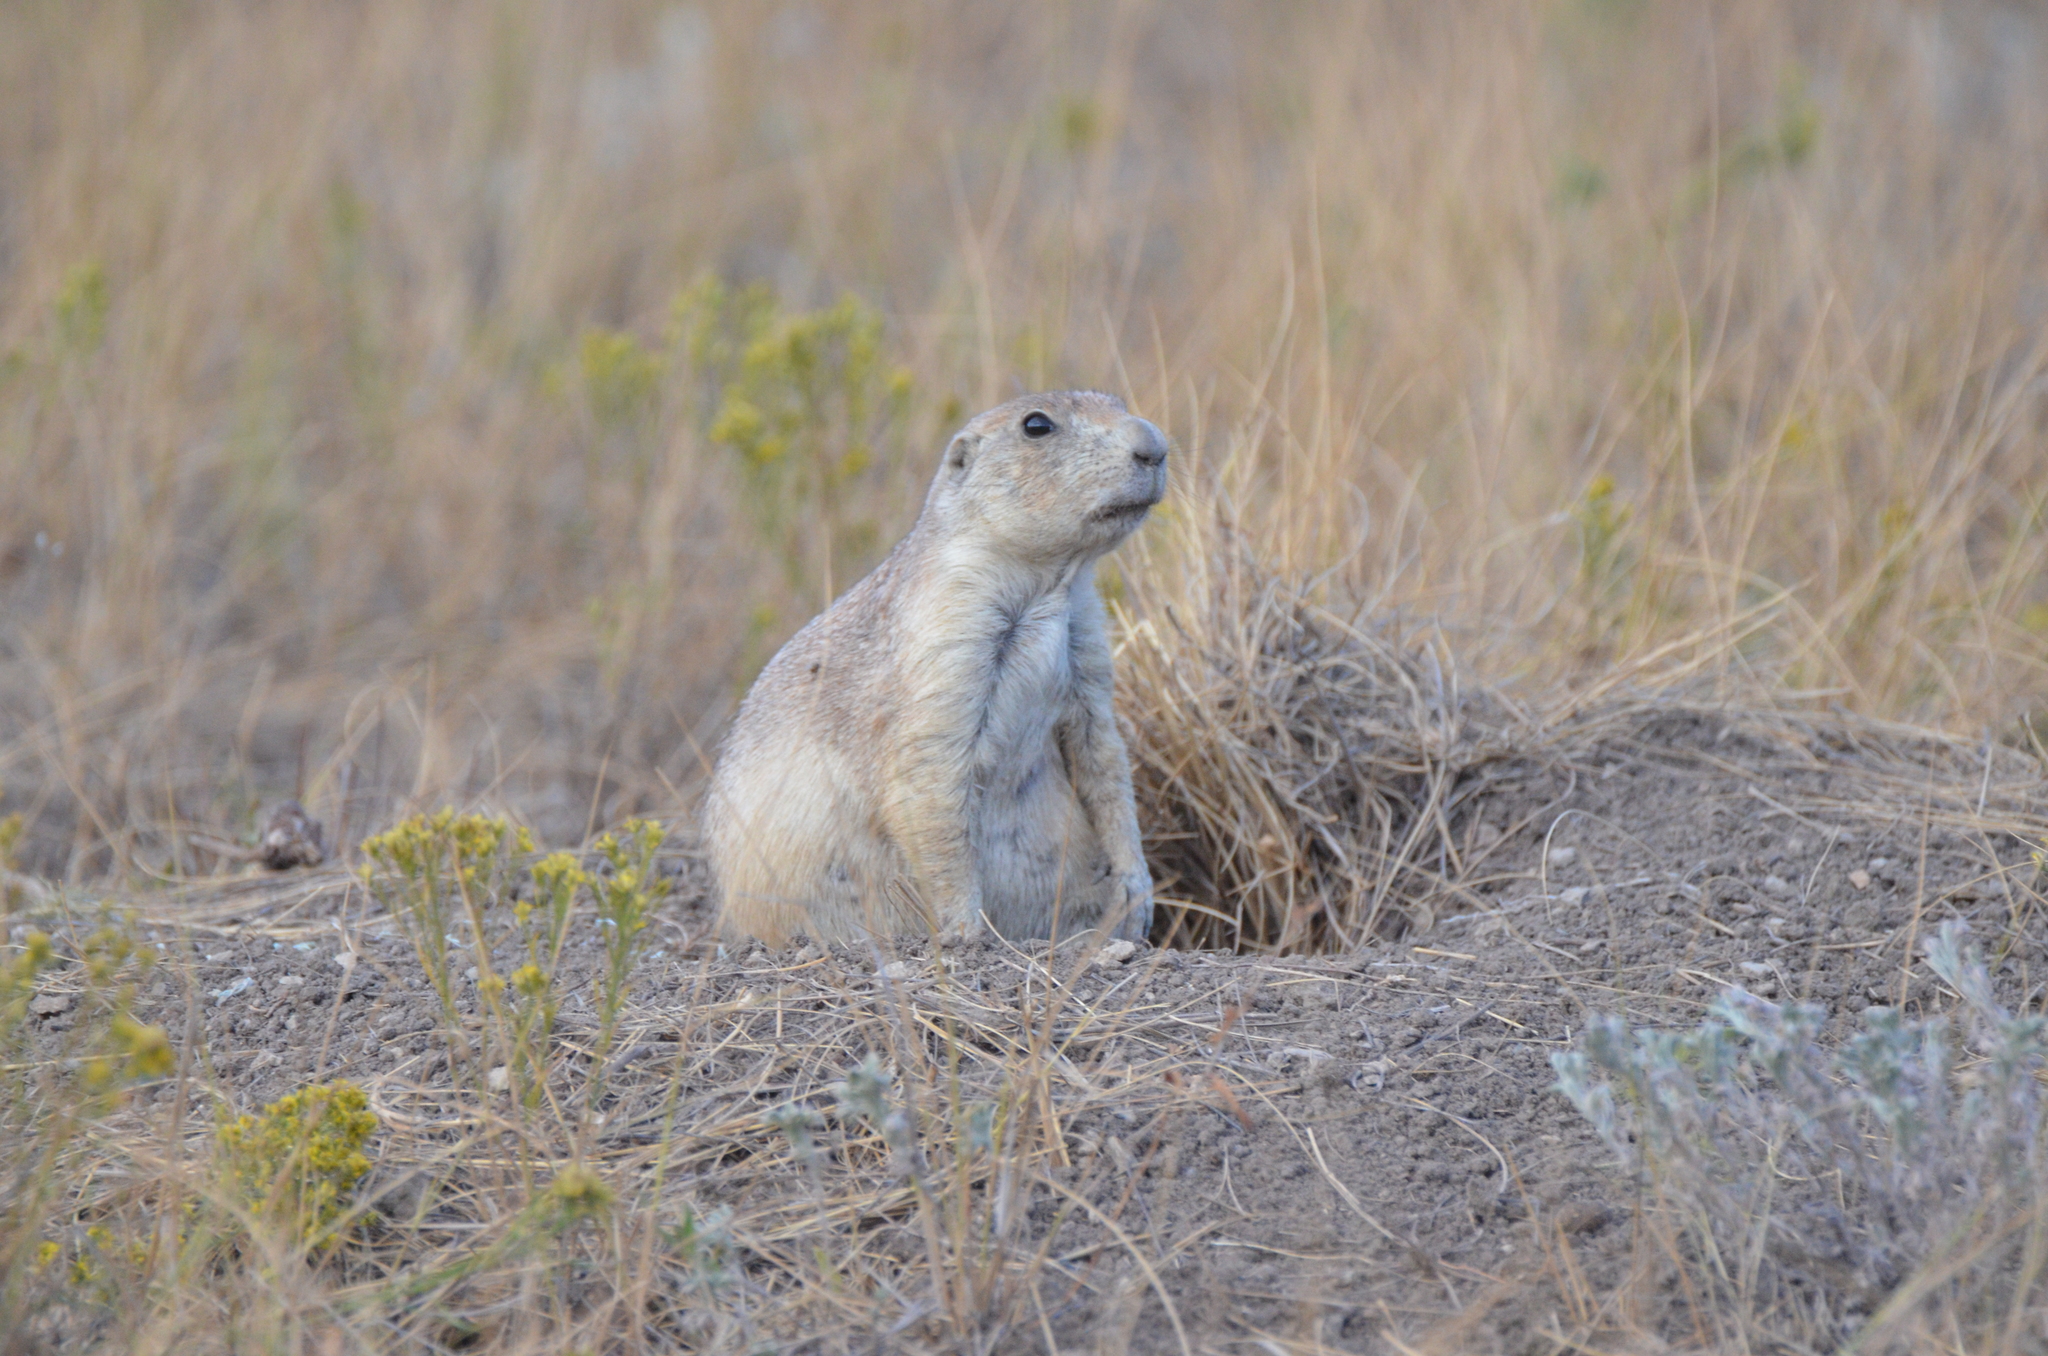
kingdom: Animalia
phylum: Chordata
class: Mammalia
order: Rodentia
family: Sciuridae
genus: Cynomys
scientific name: Cynomys ludovicianus
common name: Black-tailed prairie dog
